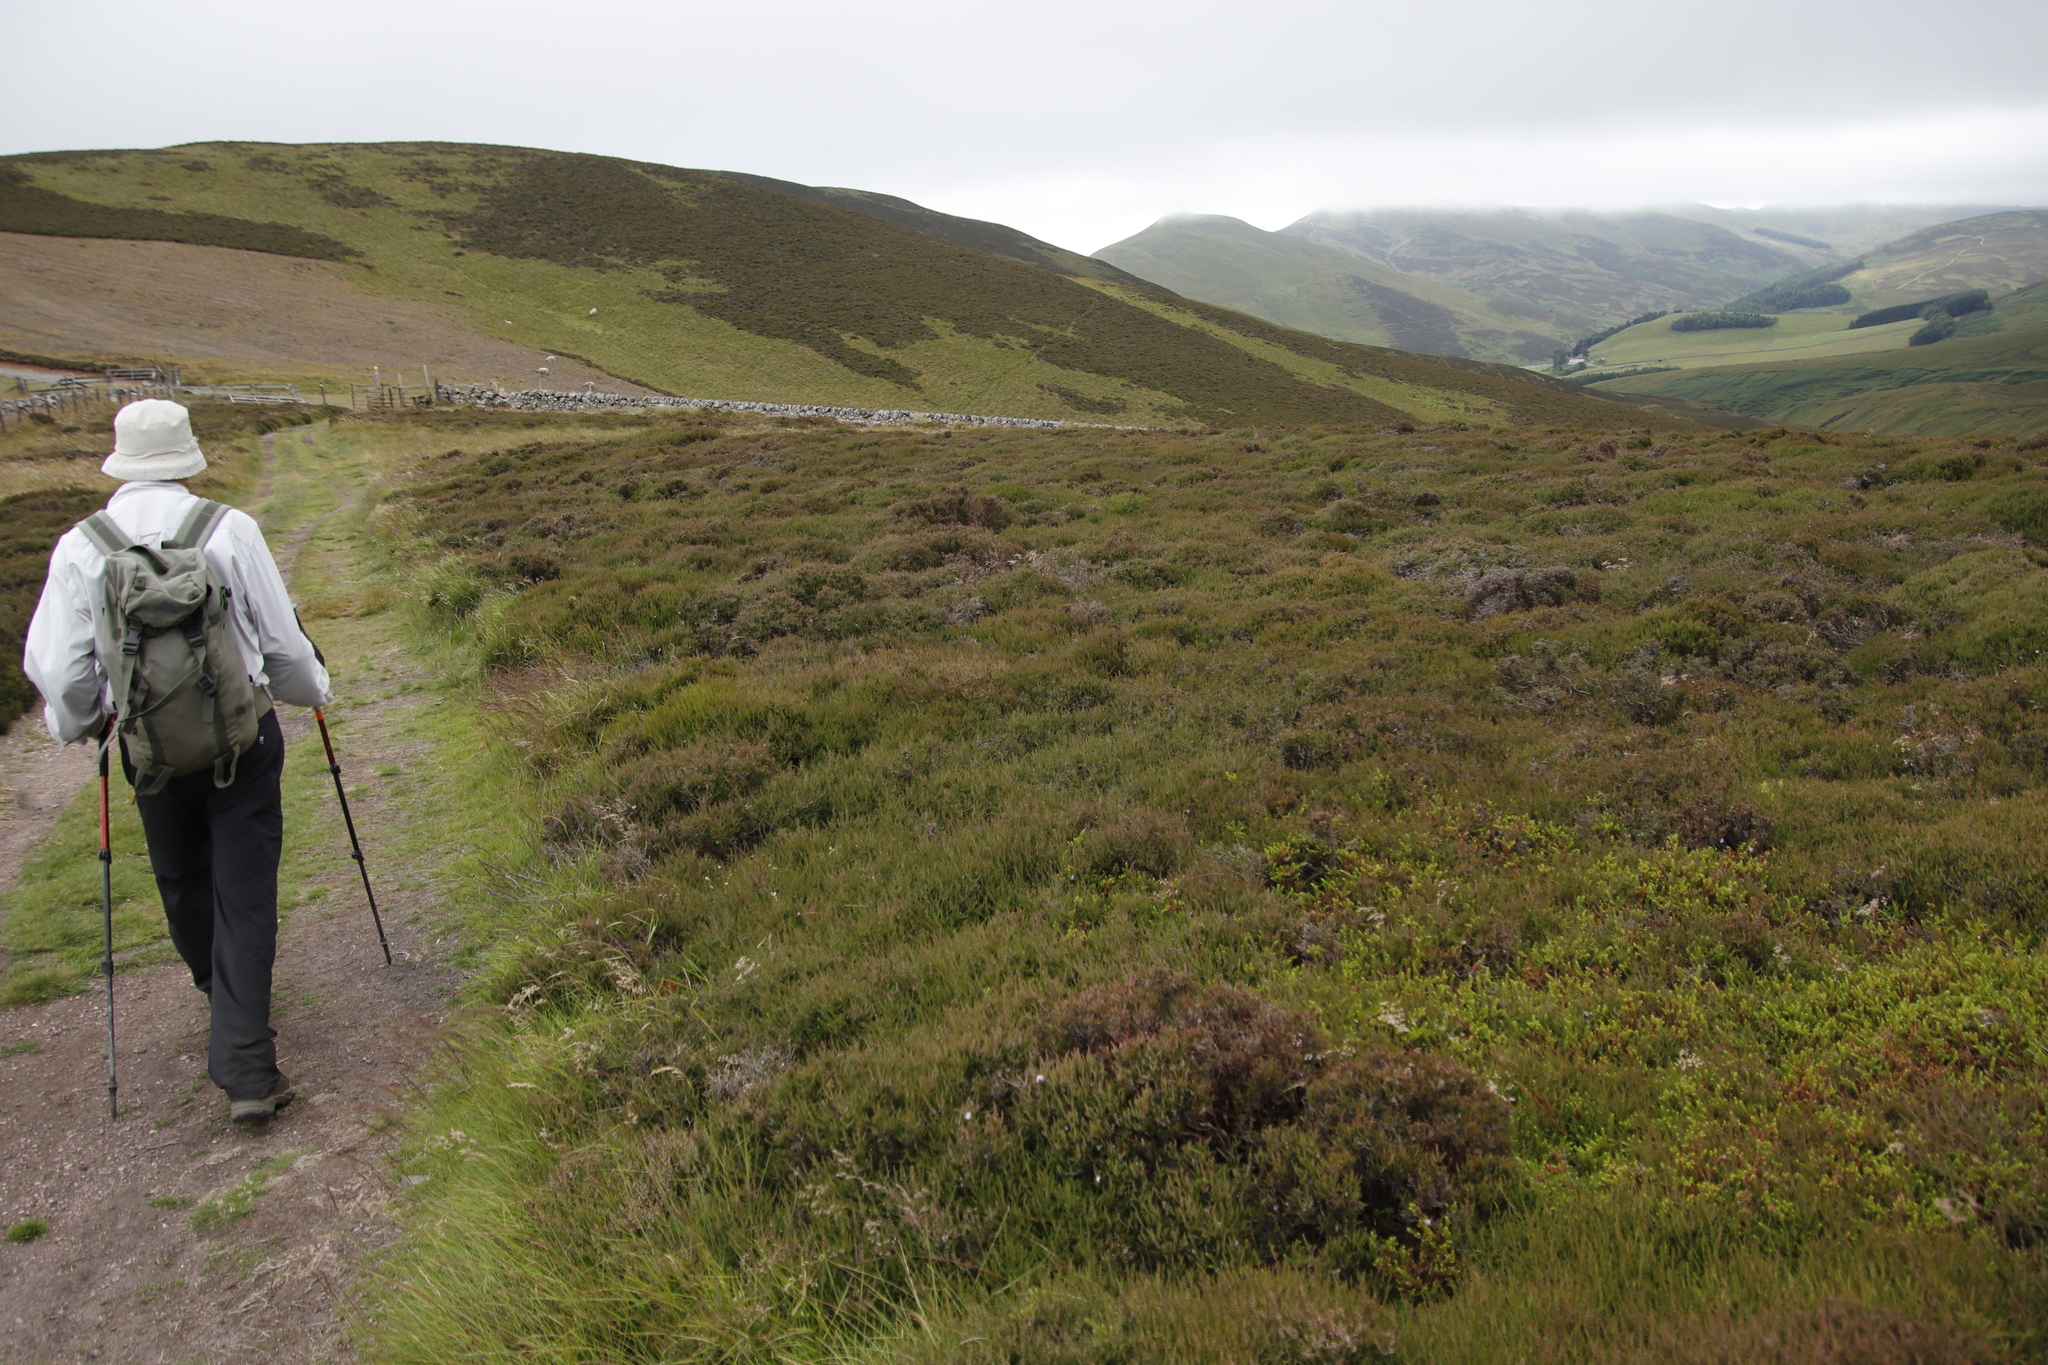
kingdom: Plantae
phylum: Tracheophyta
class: Magnoliopsida
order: Ericales
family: Ericaceae
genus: Vaccinium
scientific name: Vaccinium myrtillus
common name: Bilberry
